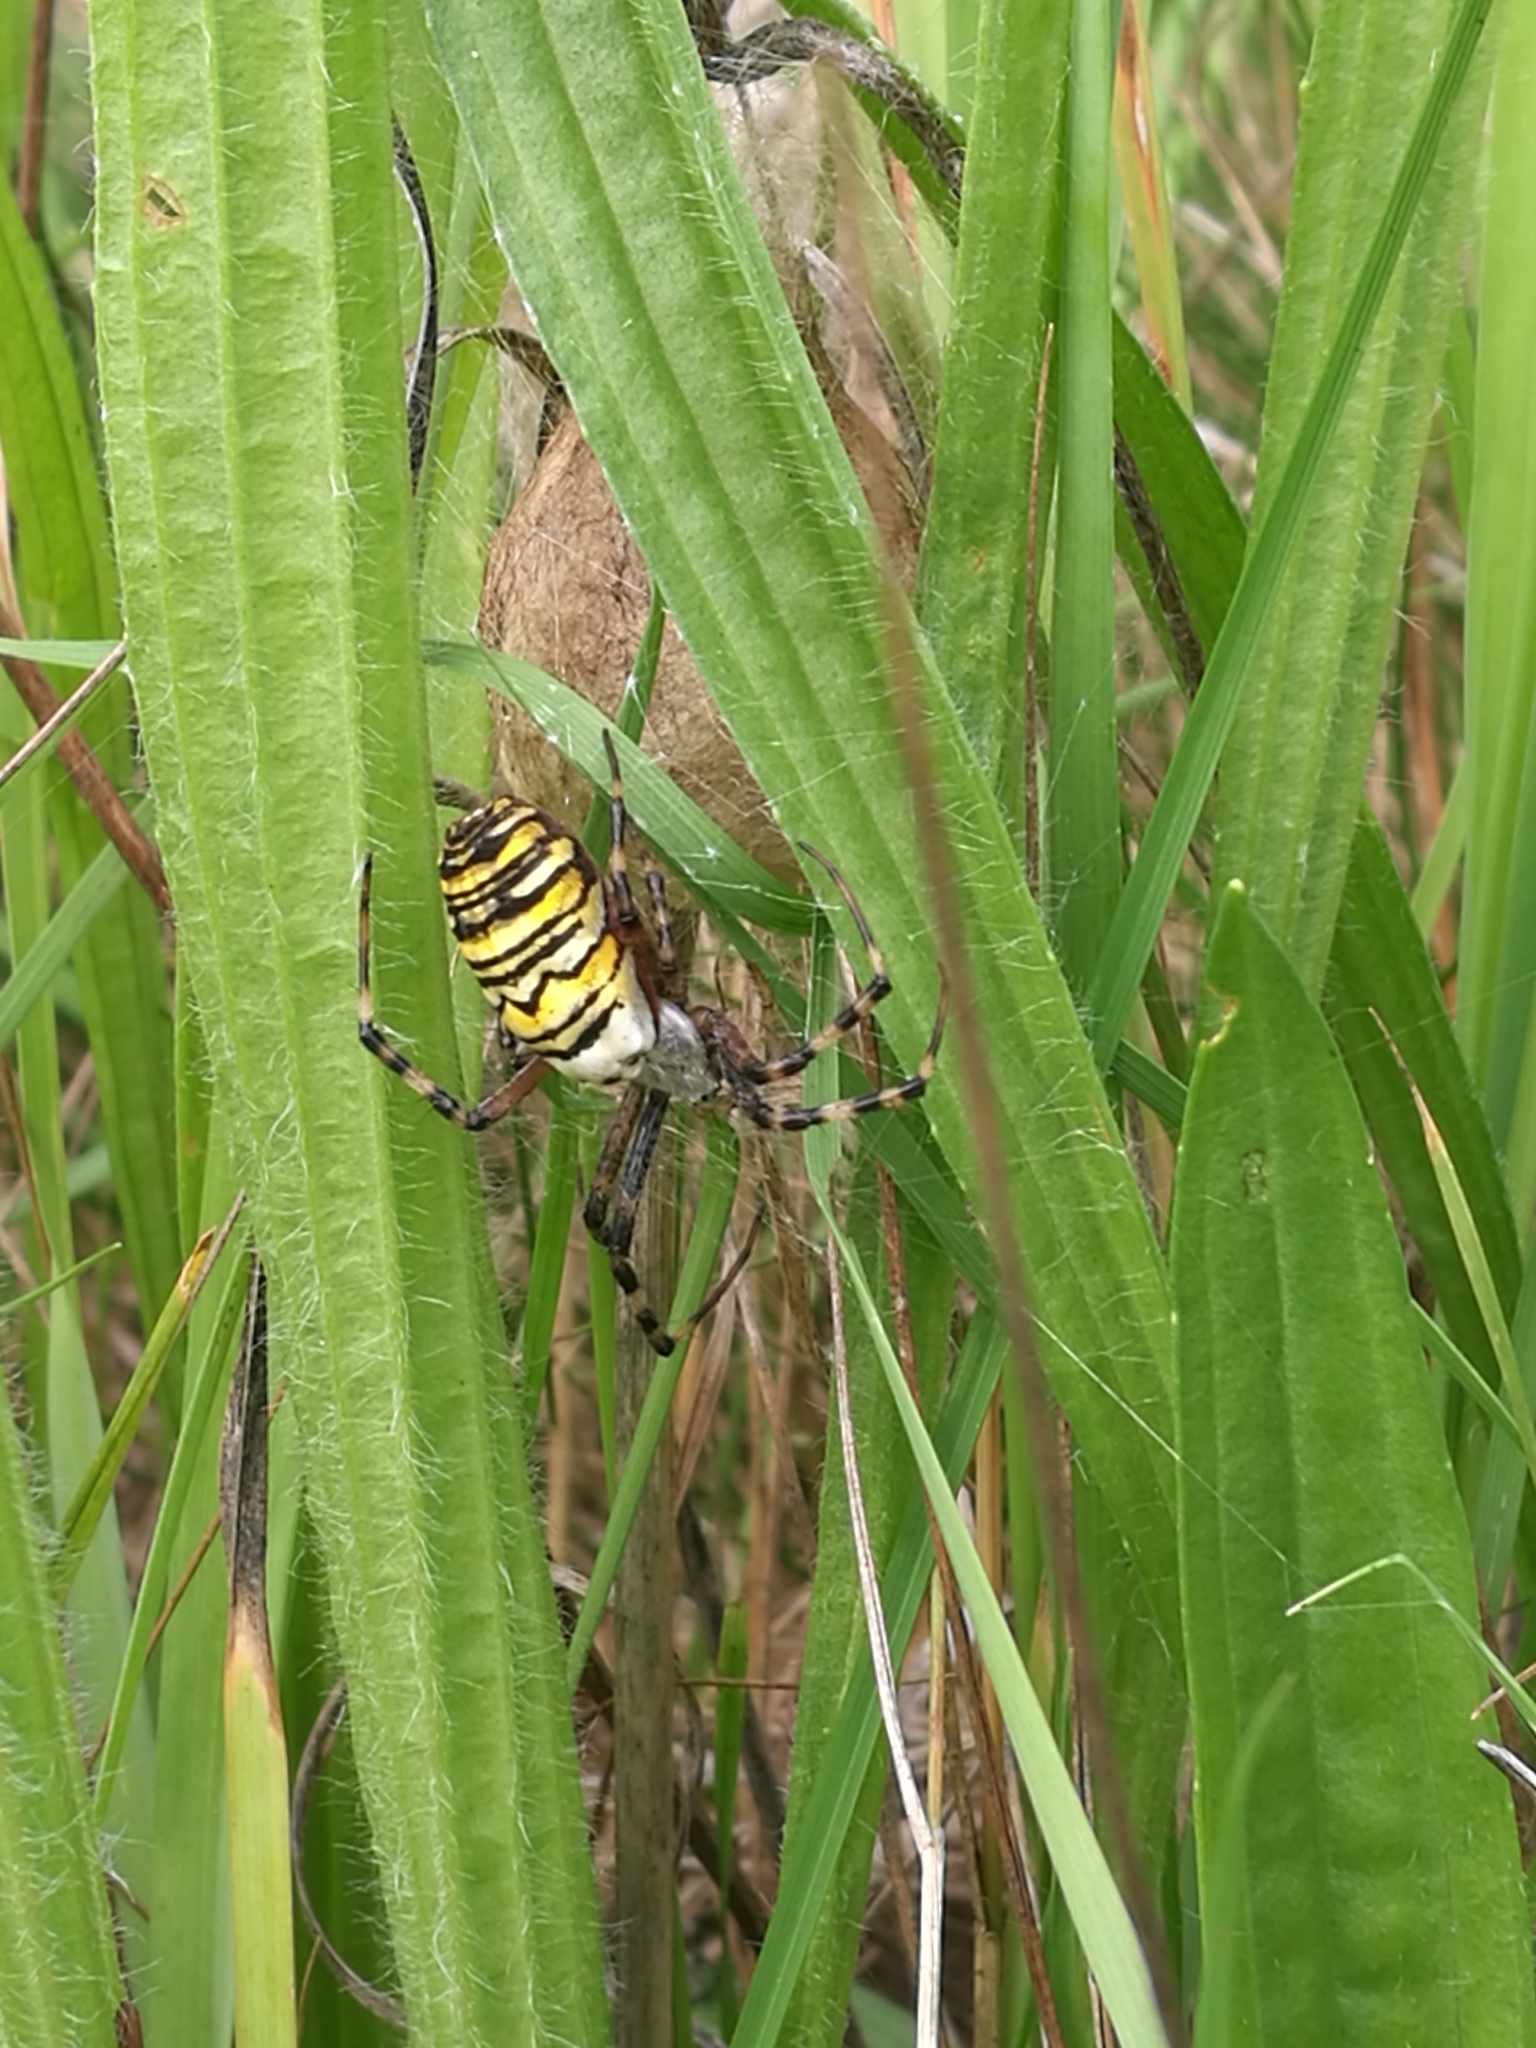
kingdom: Animalia
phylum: Arthropoda
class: Arachnida
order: Araneae
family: Araneidae
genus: Argiope
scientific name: Argiope bruennichi
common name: Wasp spider
